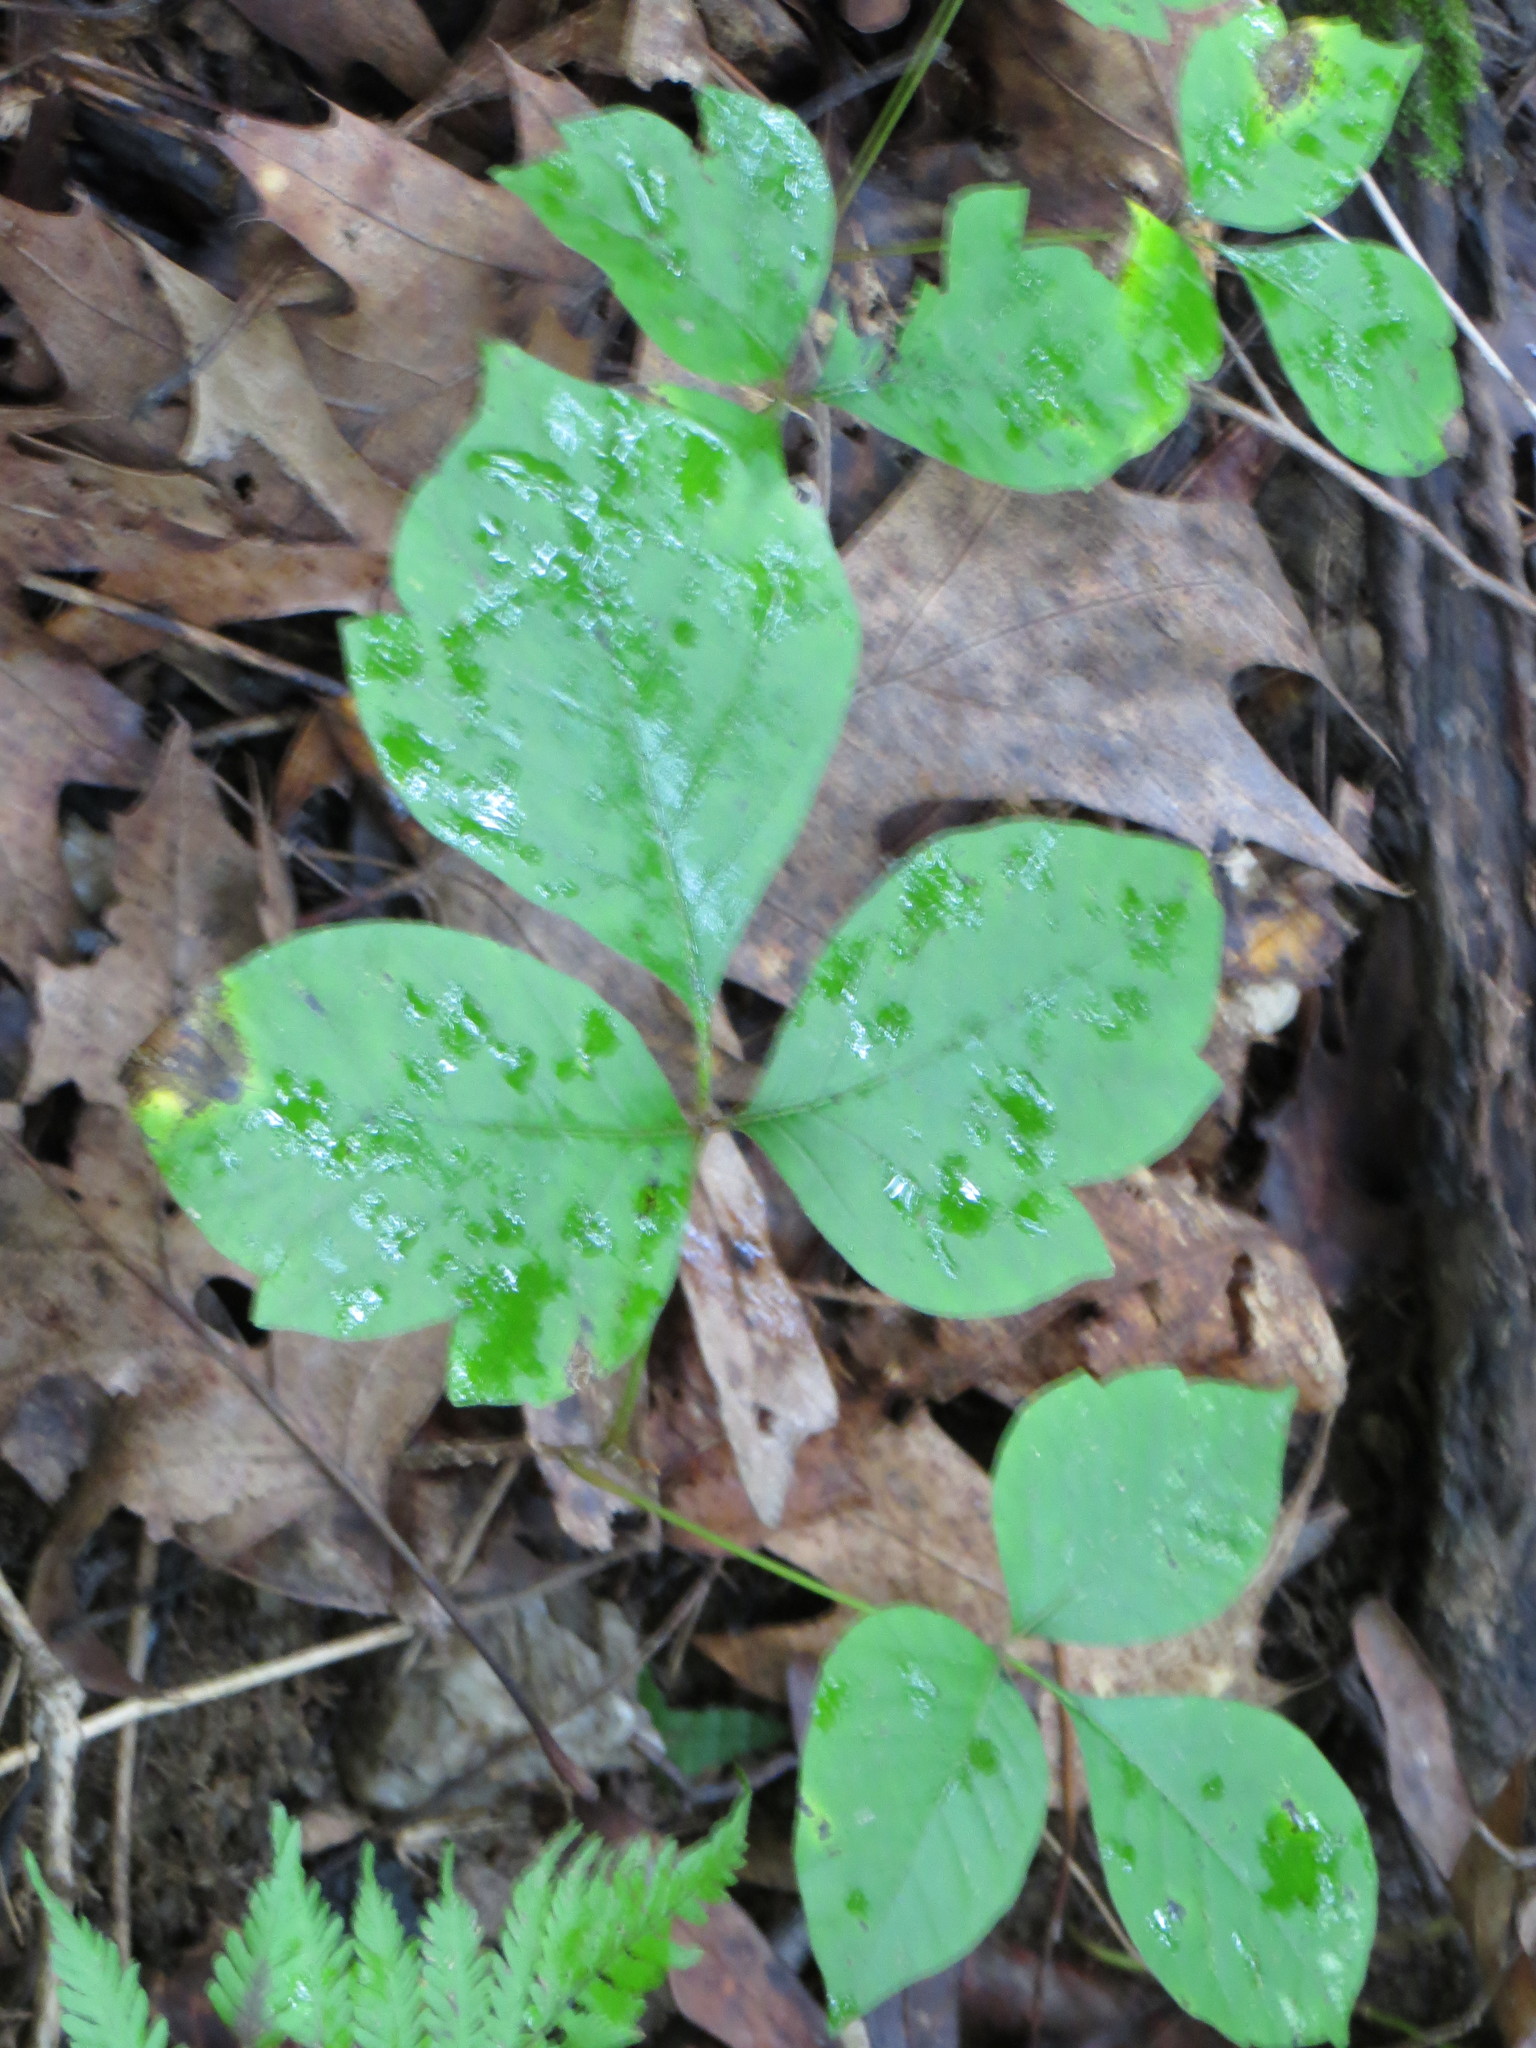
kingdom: Plantae
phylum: Tracheophyta
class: Magnoliopsida
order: Sapindales
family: Anacardiaceae
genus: Toxicodendron
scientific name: Toxicodendron radicans
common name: Poison ivy
